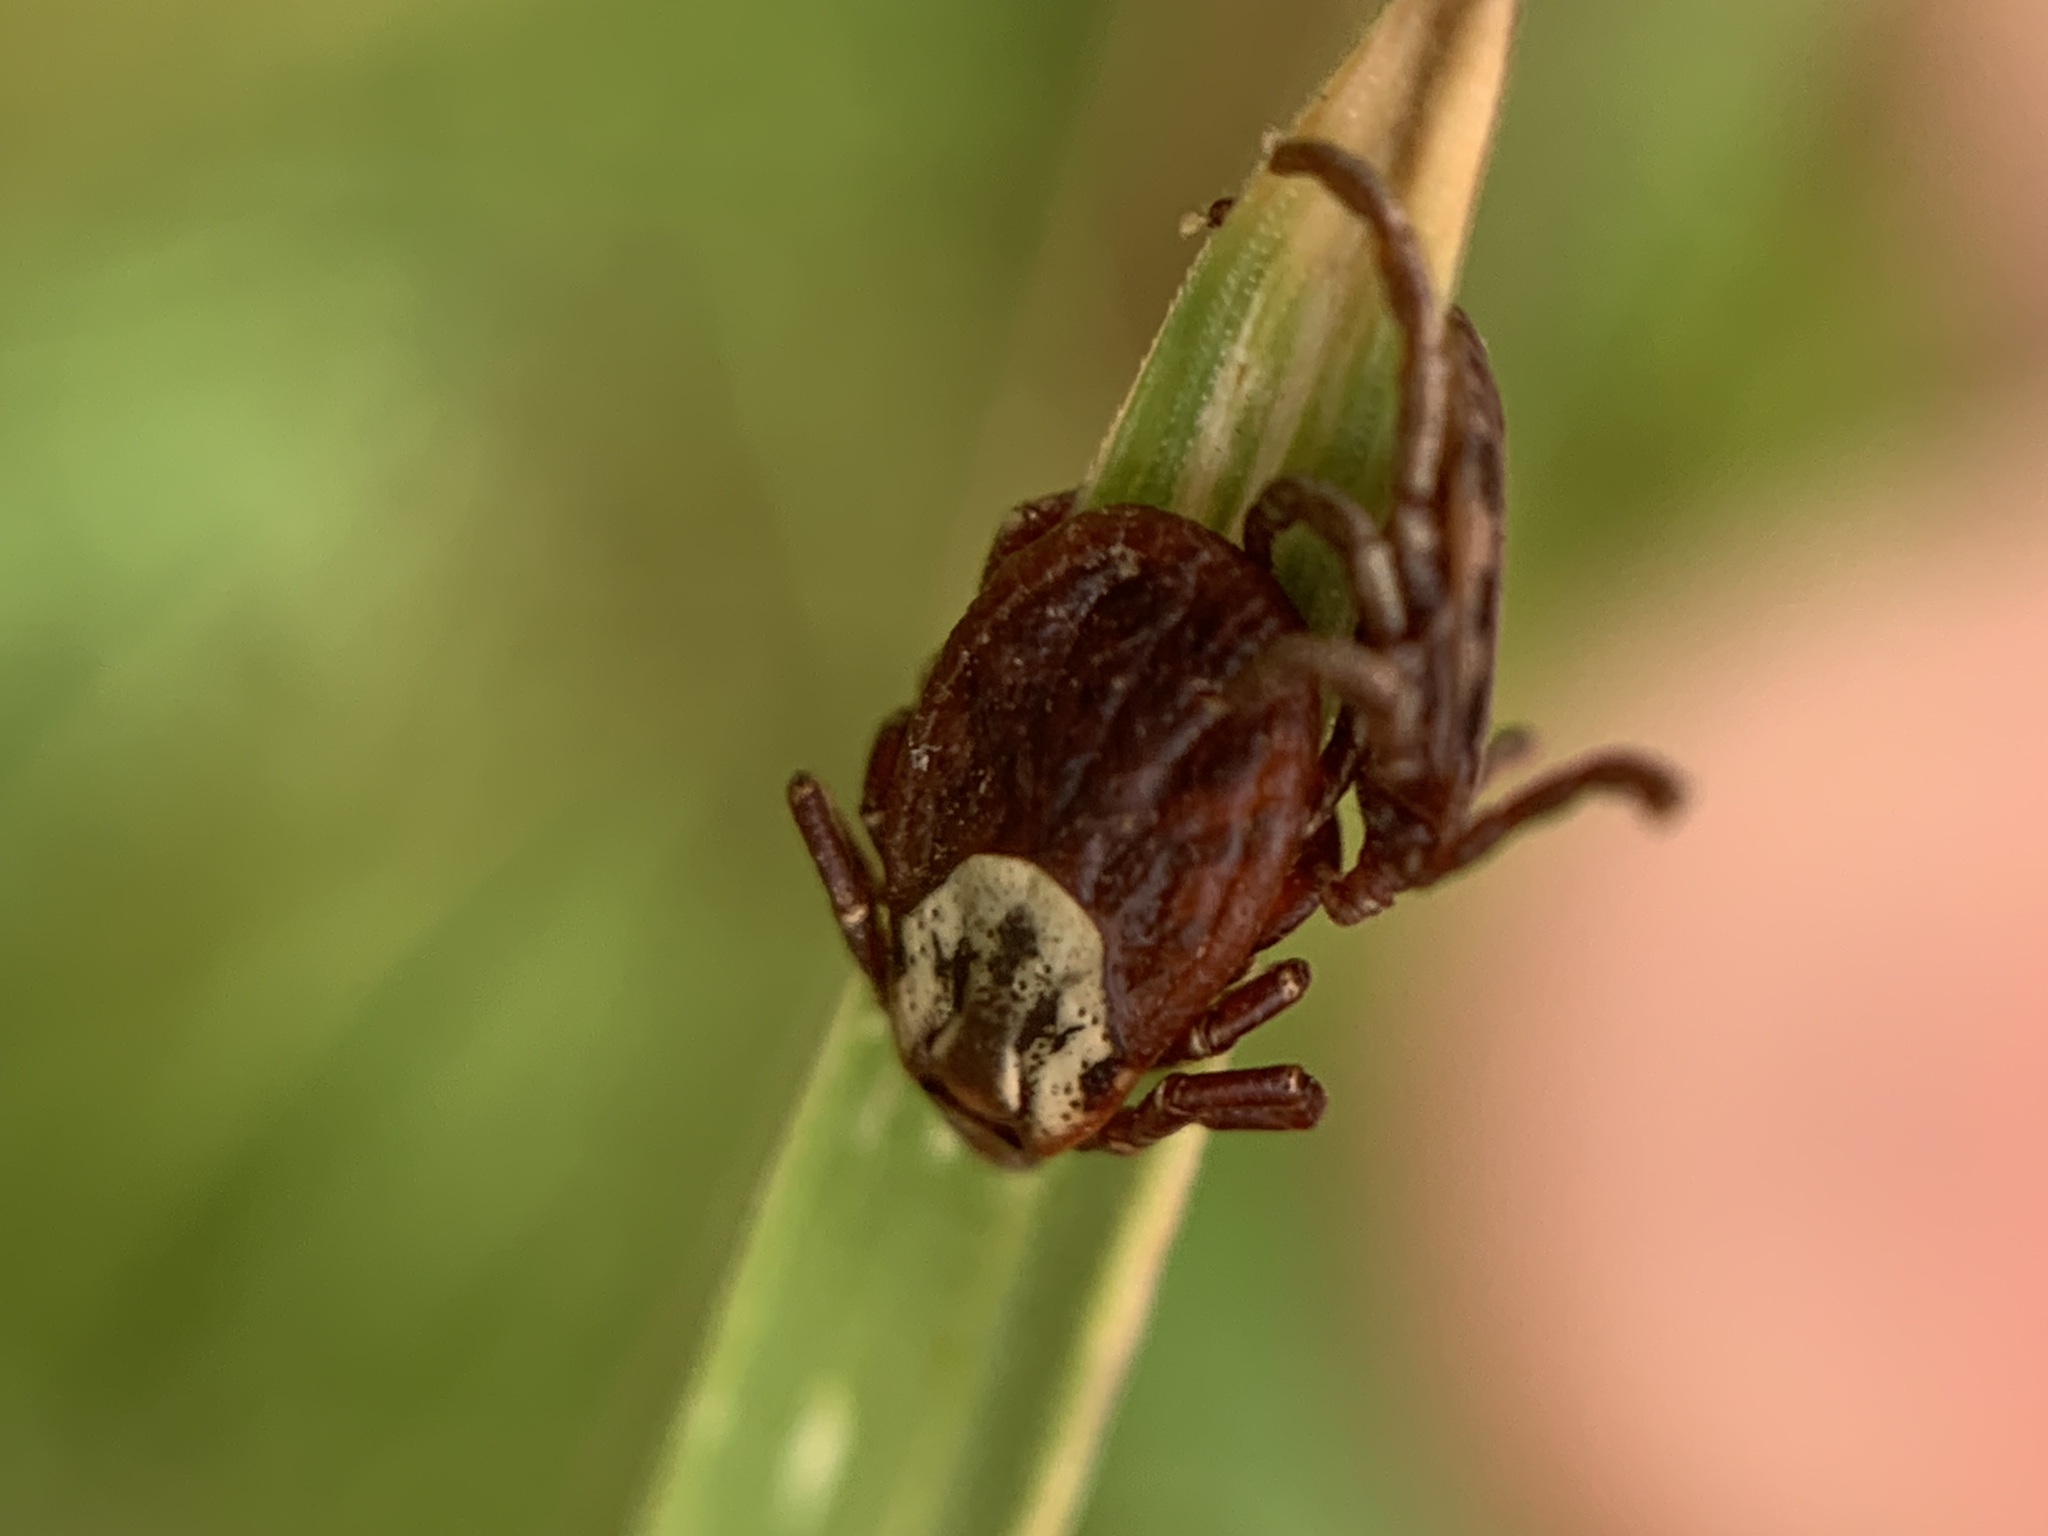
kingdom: Animalia
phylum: Arthropoda
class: Arachnida
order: Ixodida
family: Ixodidae
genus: Dermacentor
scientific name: Dermacentor occidentalis
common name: Net tick
